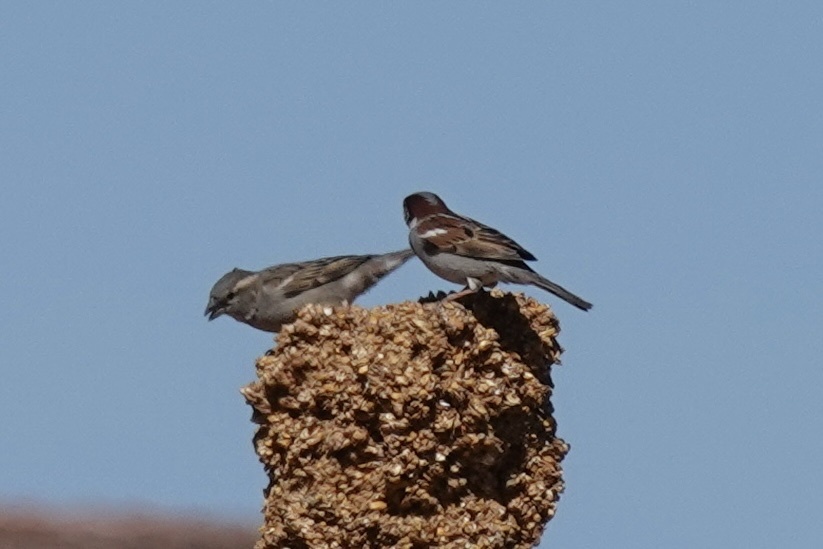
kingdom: Animalia
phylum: Chordata
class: Aves
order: Passeriformes
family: Passeridae
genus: Passer
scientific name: Passer domesticus
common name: House sparrow
